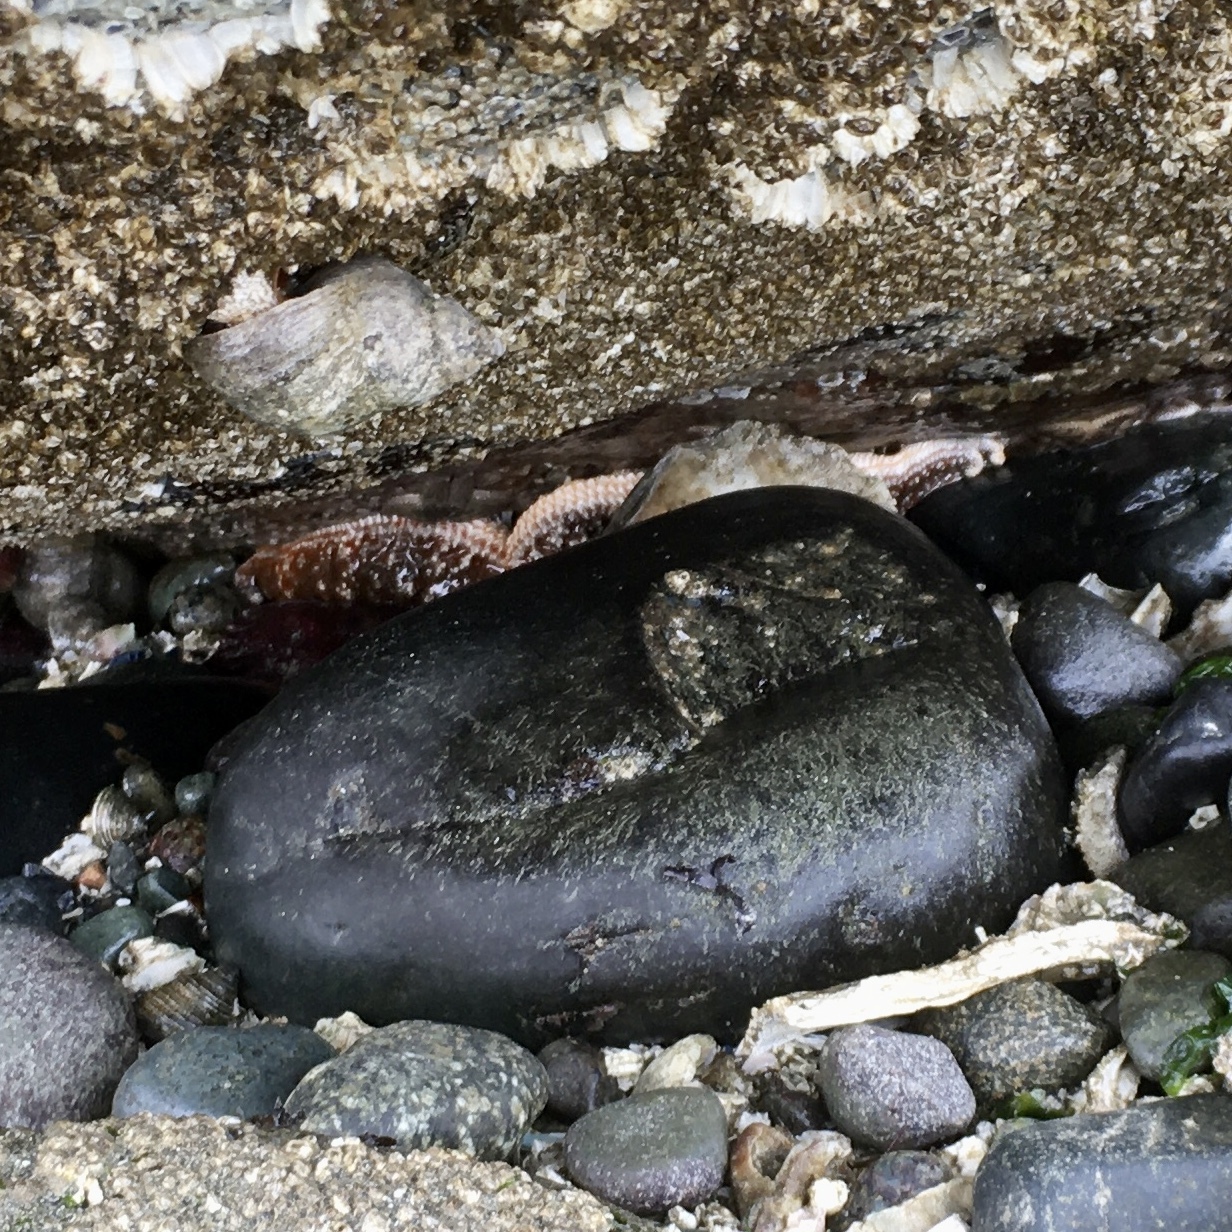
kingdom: Animalia
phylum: Echinodermata
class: Asteroidea
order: Forcipulatida
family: Asteriidae
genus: Evasterias
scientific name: Evasterias troschelii
